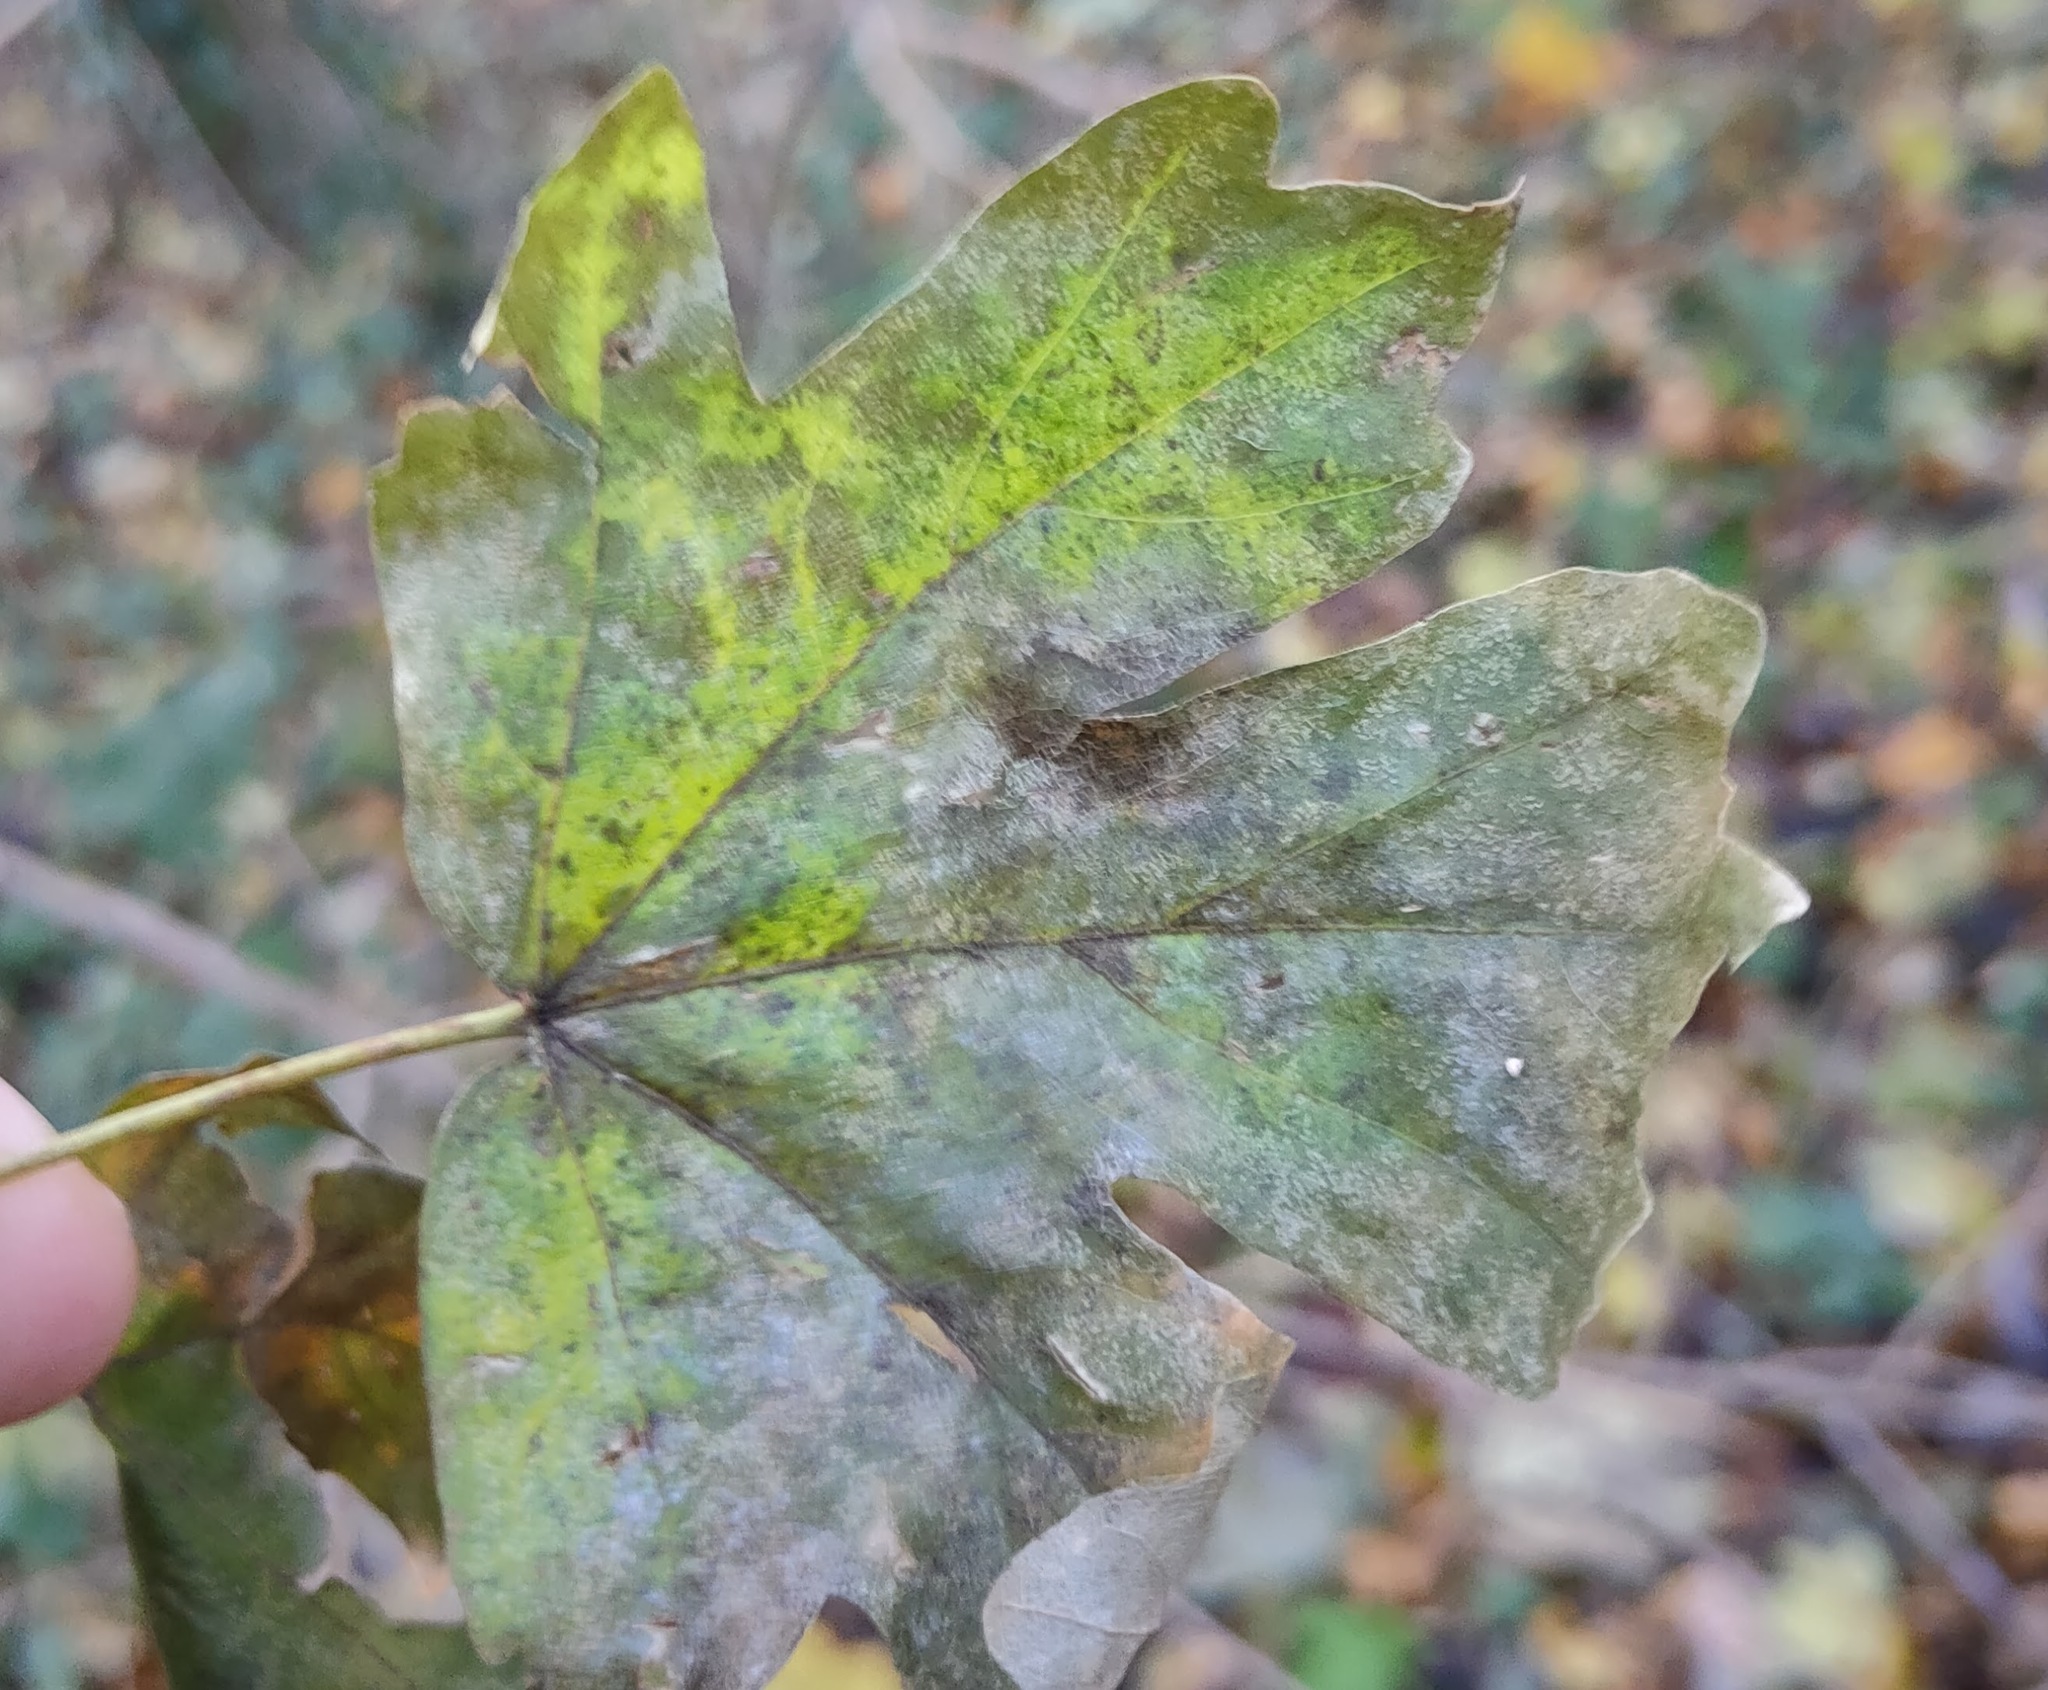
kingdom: Plantae
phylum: Tracheophyta
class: Magnoliopsida
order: Sapindales
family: Sapindaceae
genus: Acer
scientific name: Acer campestre
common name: Field maple
